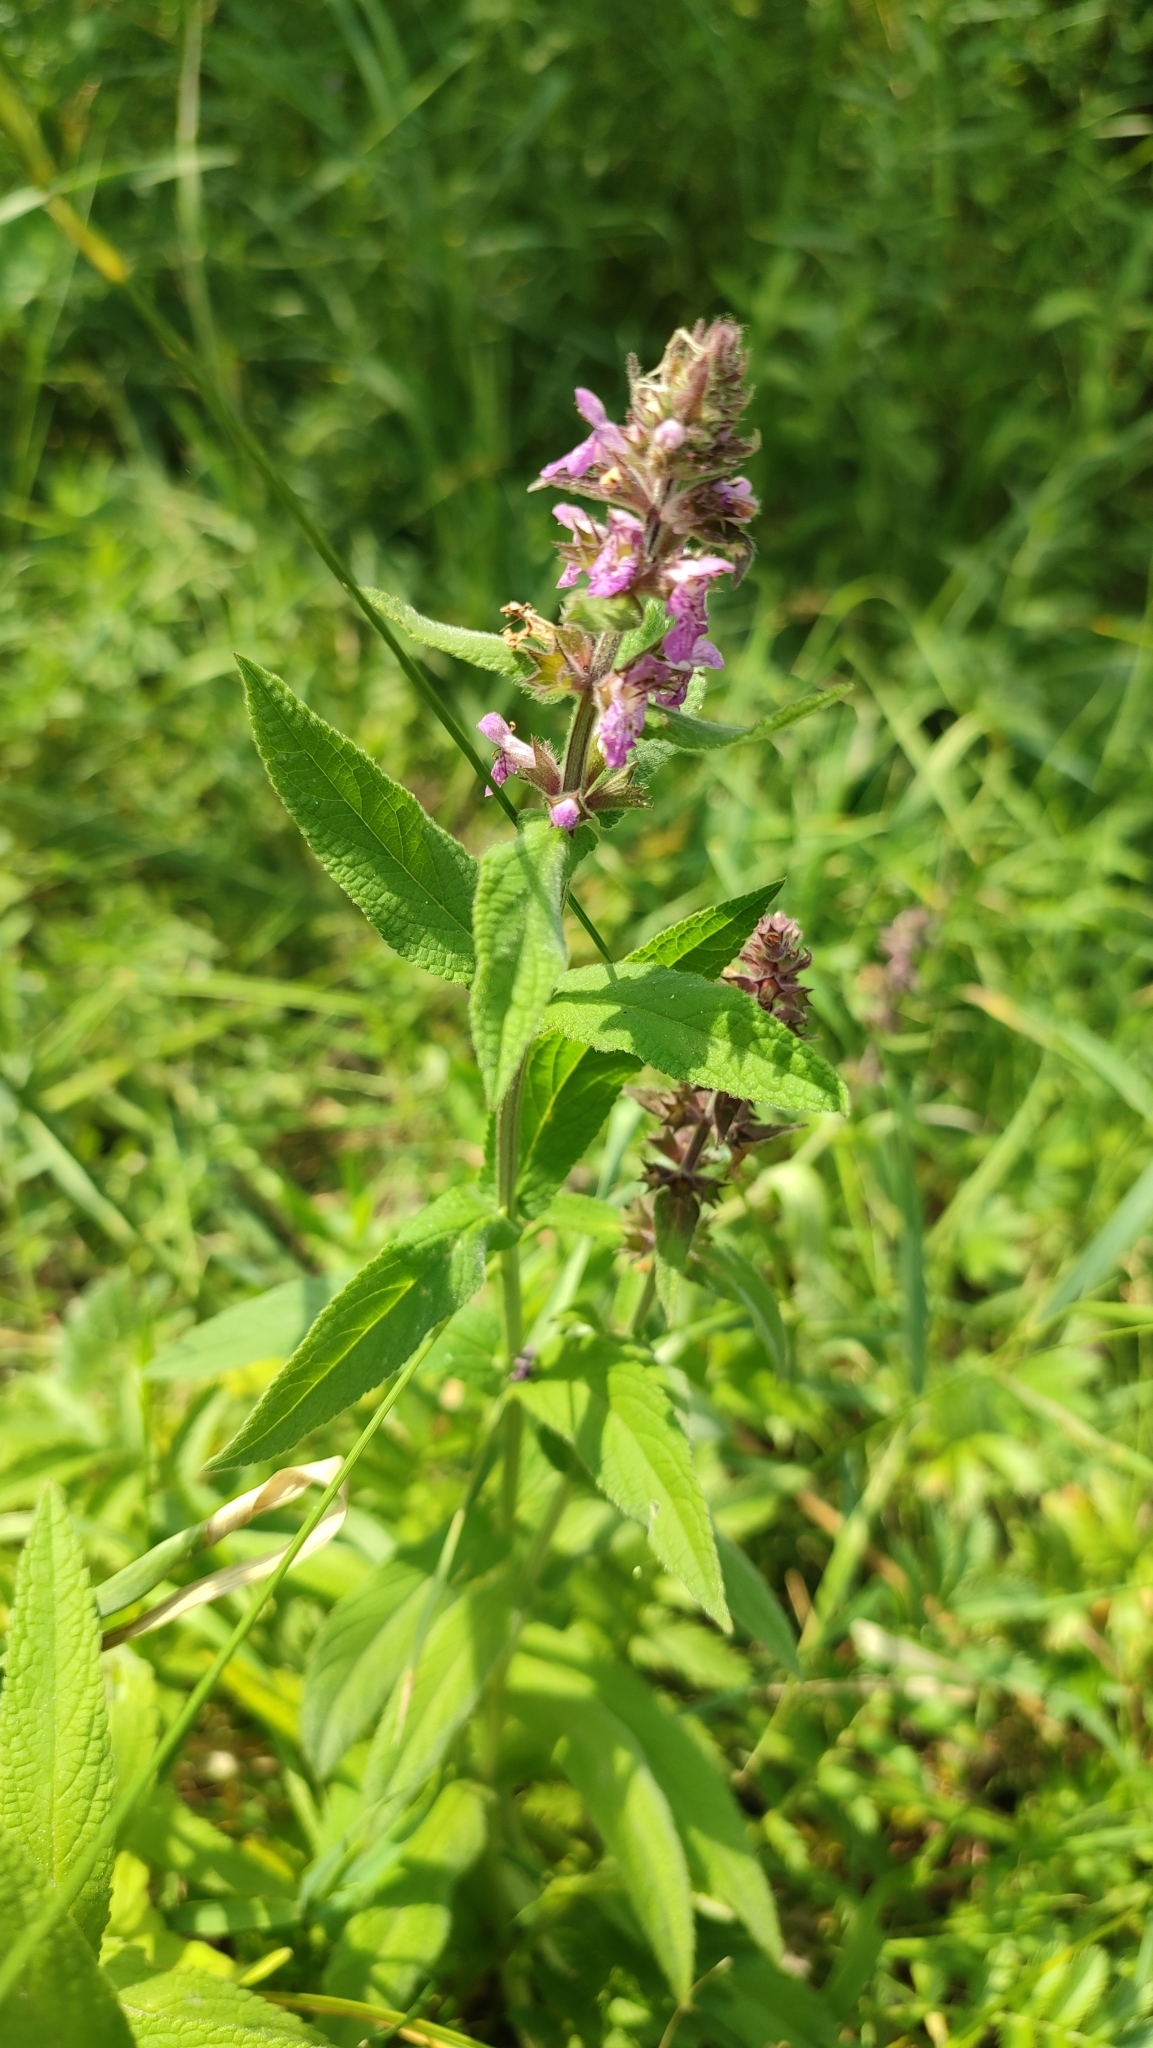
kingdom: Plantae
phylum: Tracheophyta
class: Magnoliopsida
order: Lamiales
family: Lamiaceae
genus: Stachys
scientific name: Stachys palustris
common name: Marsh woundwort
